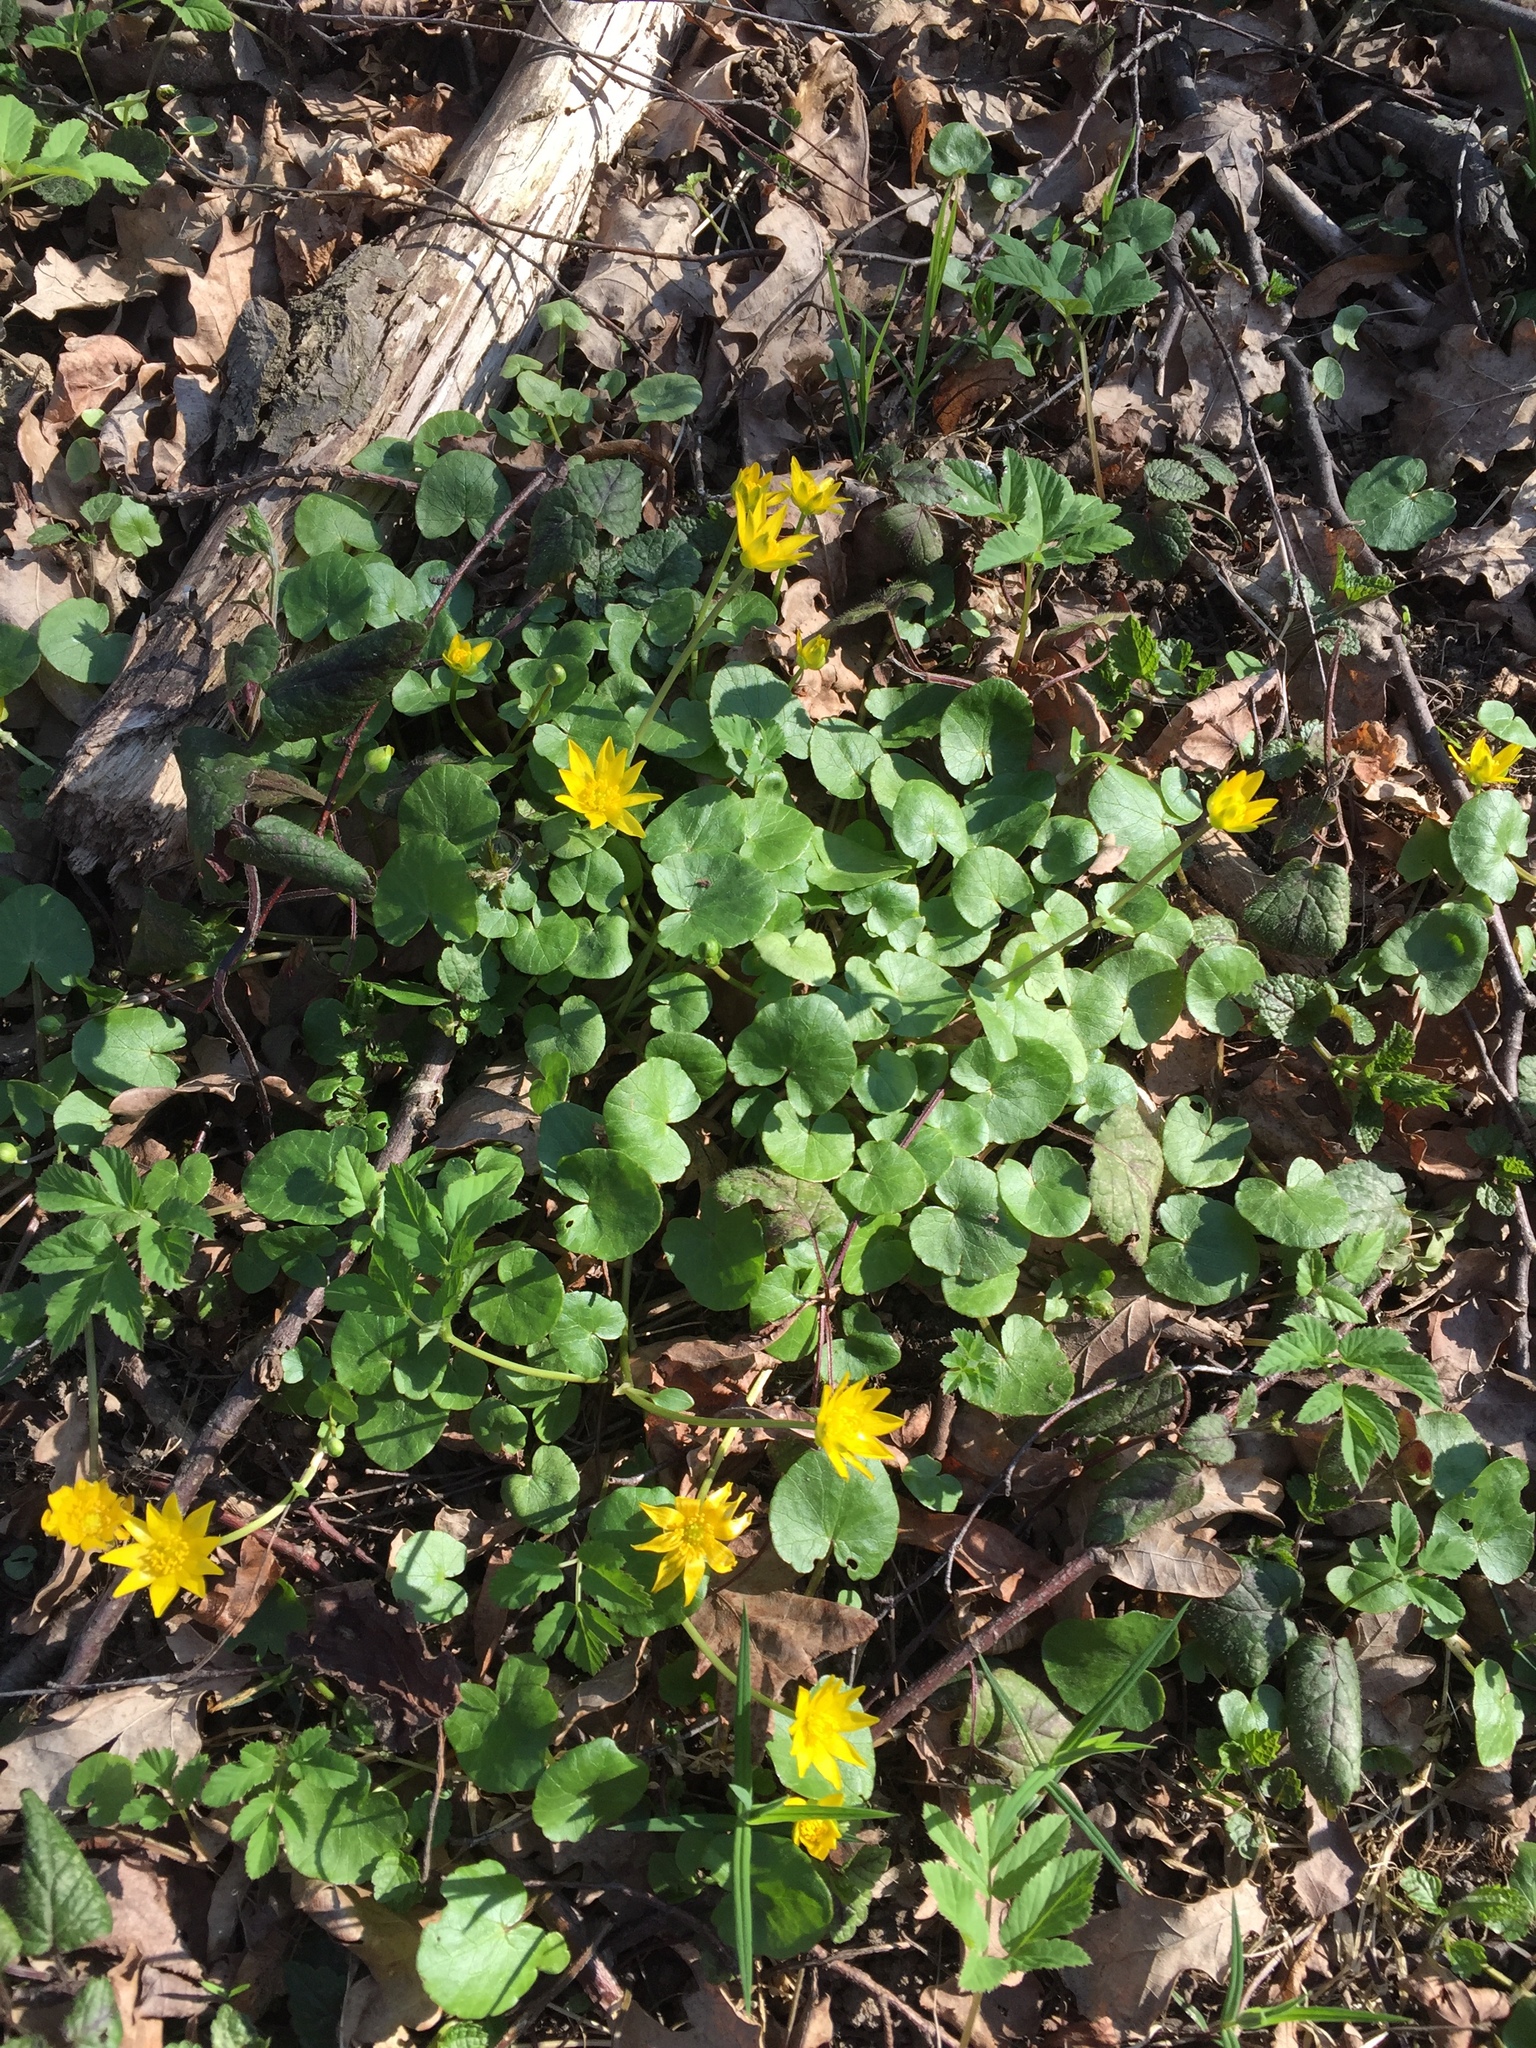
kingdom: Plantae
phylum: Tracheophyta
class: Magnoliopsida
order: Ranunculales
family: Ranunculaceae
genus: Ficaria
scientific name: Ficaria verna
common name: Lesser celandine
